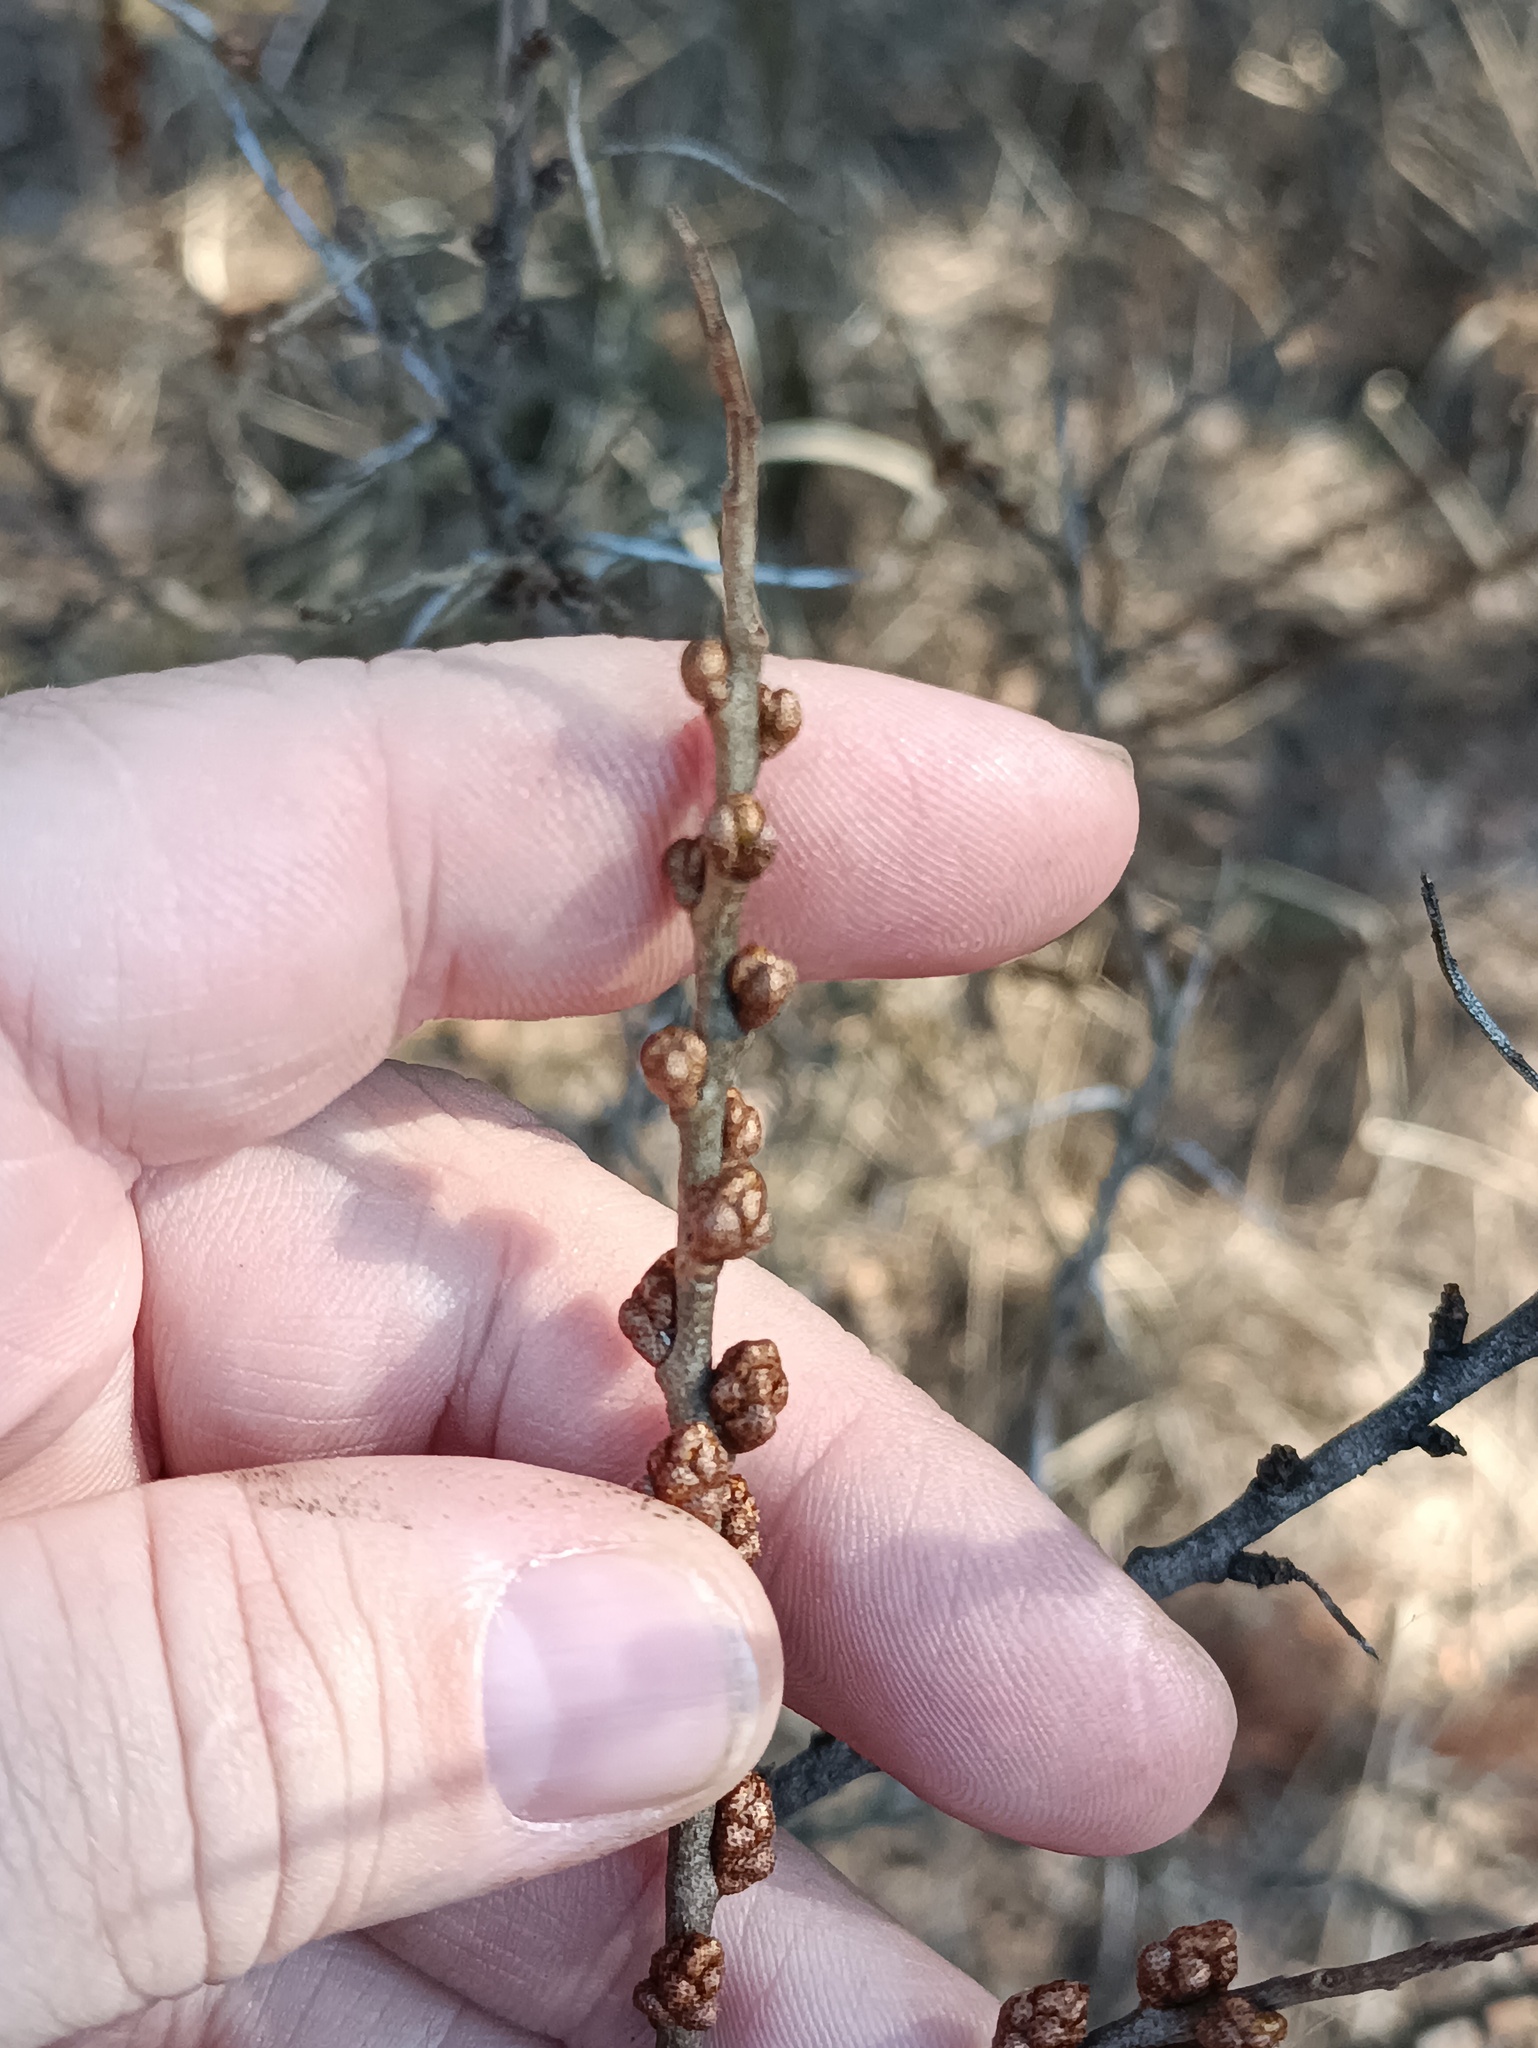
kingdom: Plantae
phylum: Tracheophyta
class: Magnoliopsida
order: Rosales
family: Elaeagnaceae
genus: Hippophae
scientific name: Hippophae rhamnoides
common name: Sea-buckthorn
